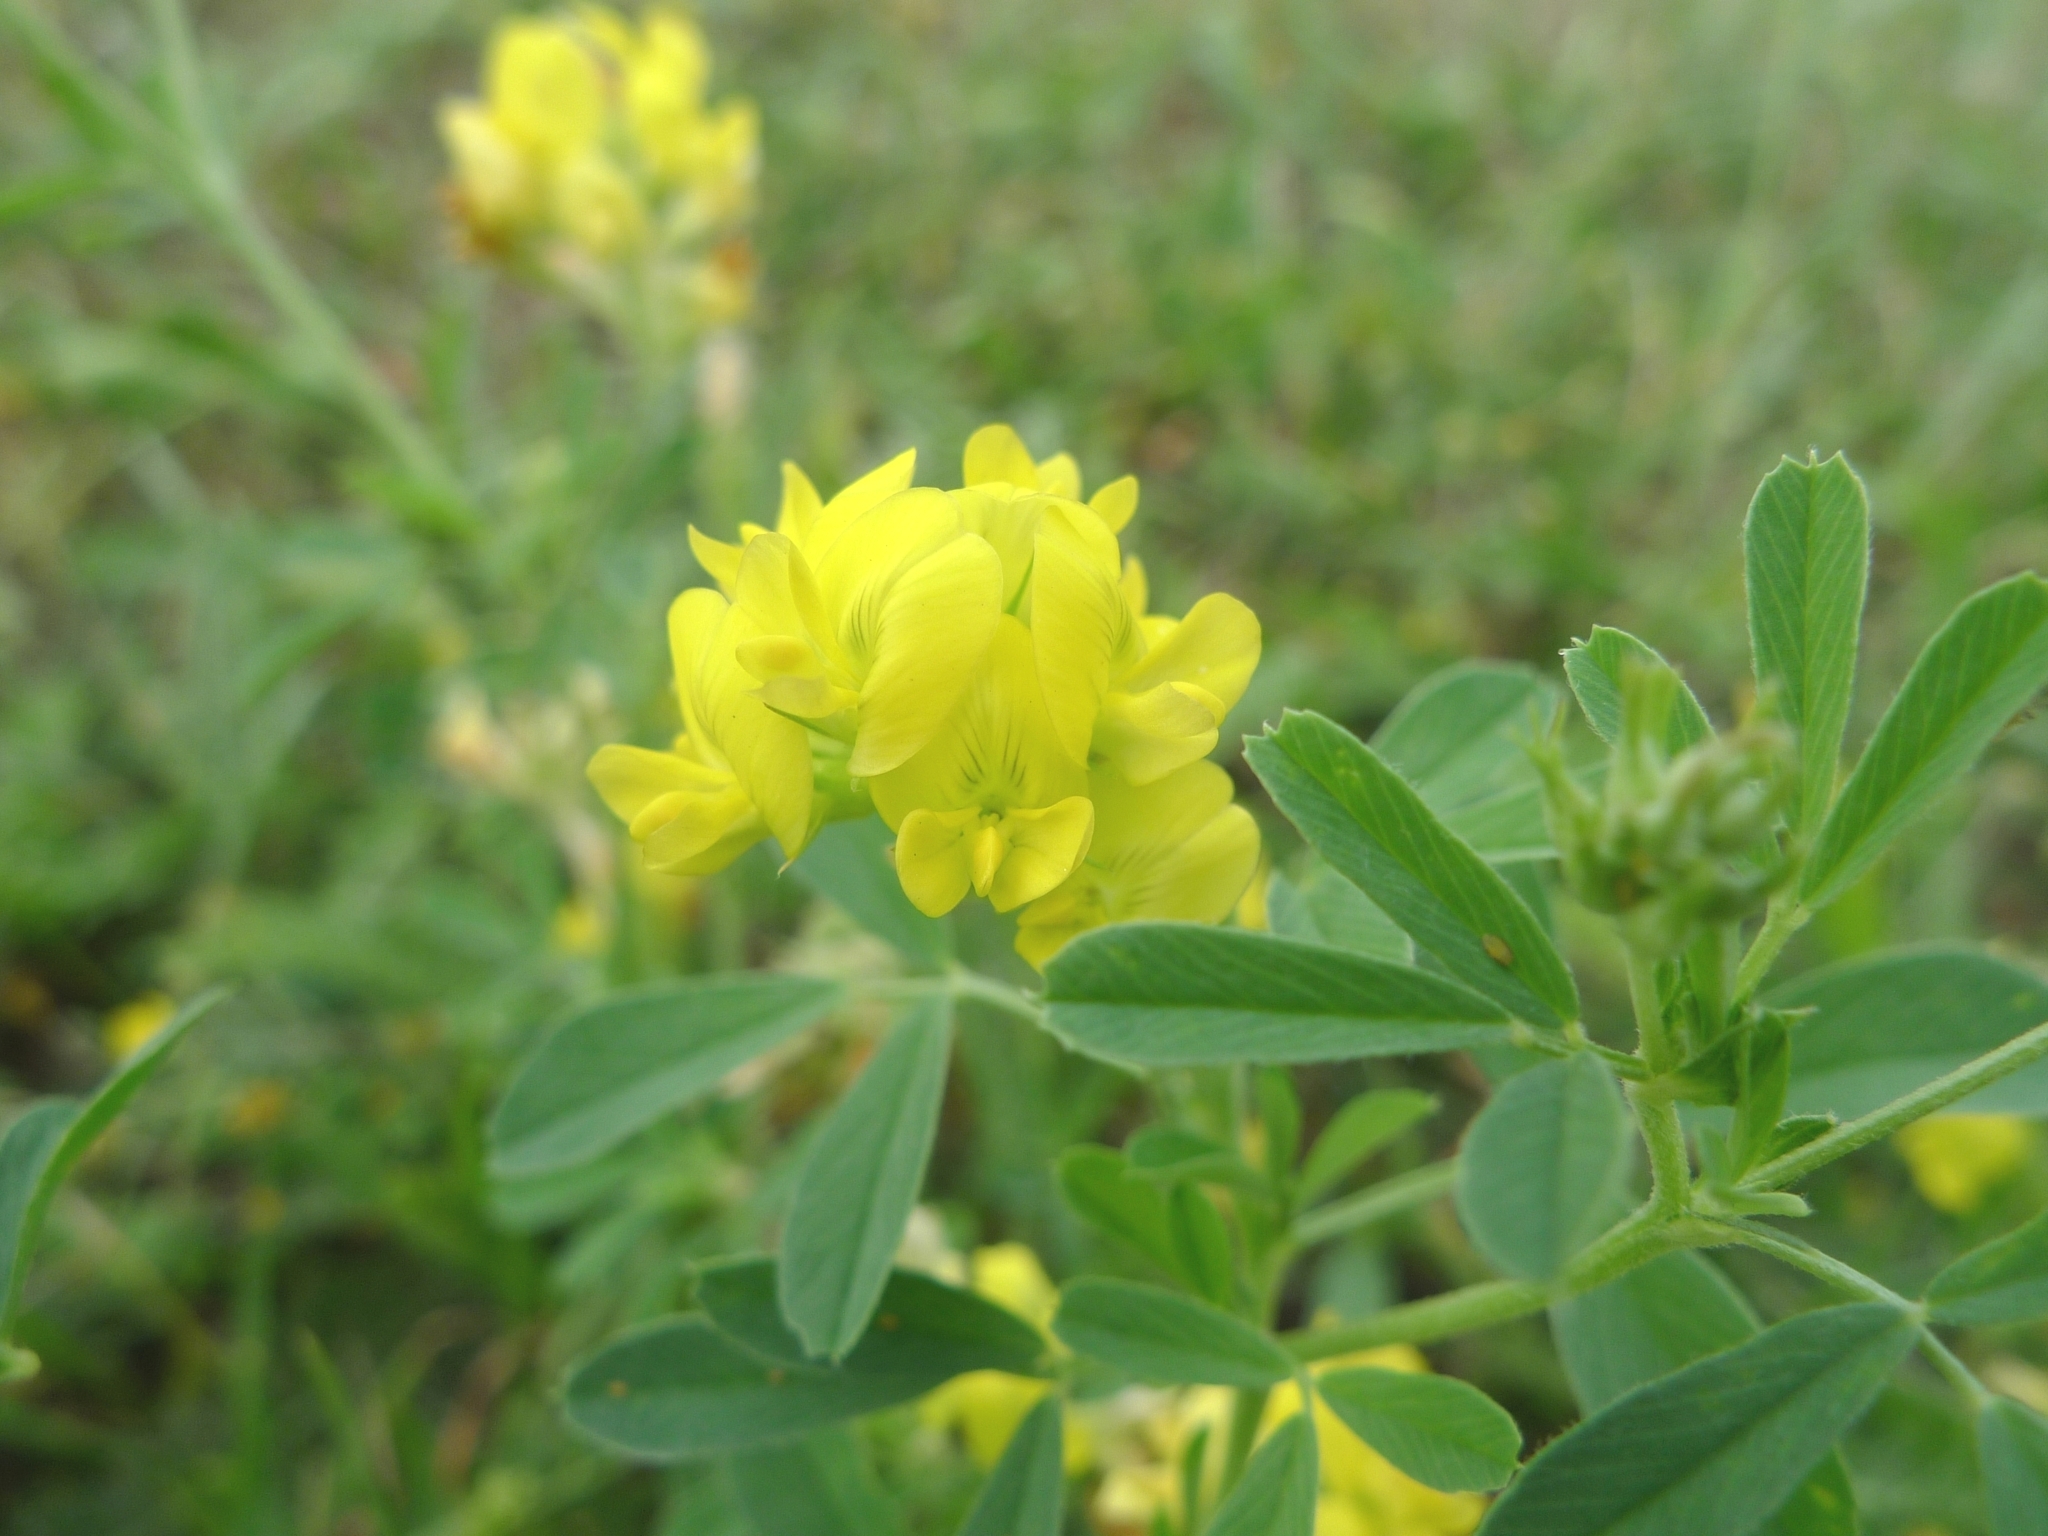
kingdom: Plantae
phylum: Tracheophyta
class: Magnoliopsida
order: Fabales
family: Fabaceae
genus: Medicago
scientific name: Medicago falcata
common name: Sickle medick
